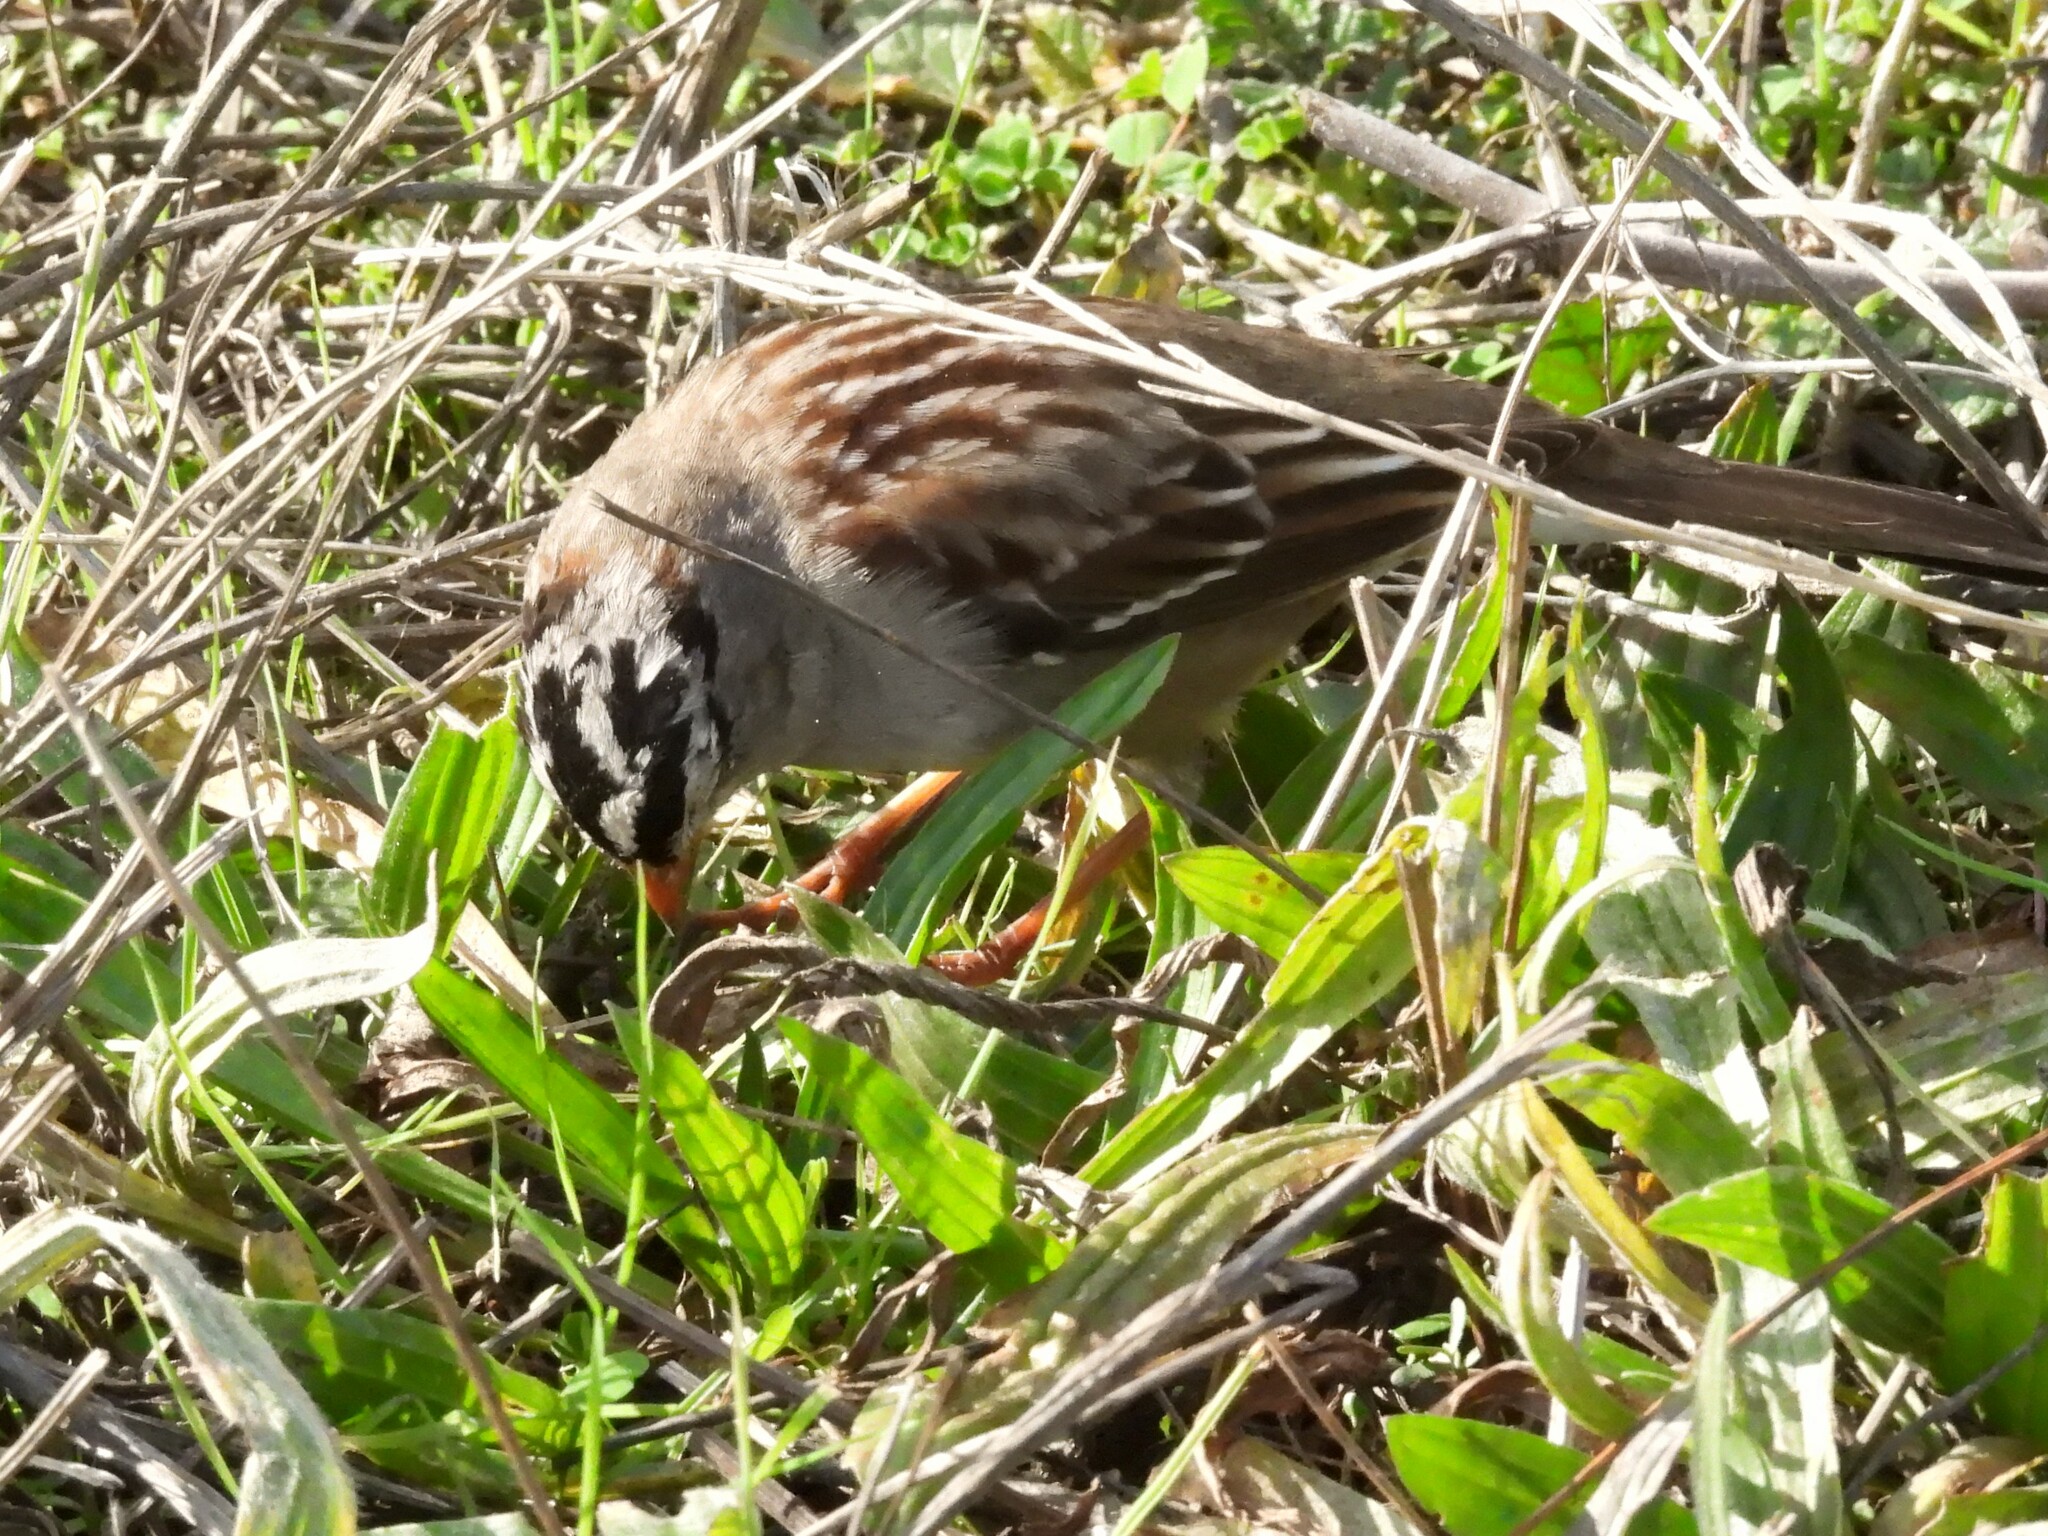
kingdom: Animalia
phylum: Chordata
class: Aves
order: Passeriformes
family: Passerellidae
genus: Zonotrichia
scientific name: Zonotrichia leucophrys
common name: White-crowned sparrow
